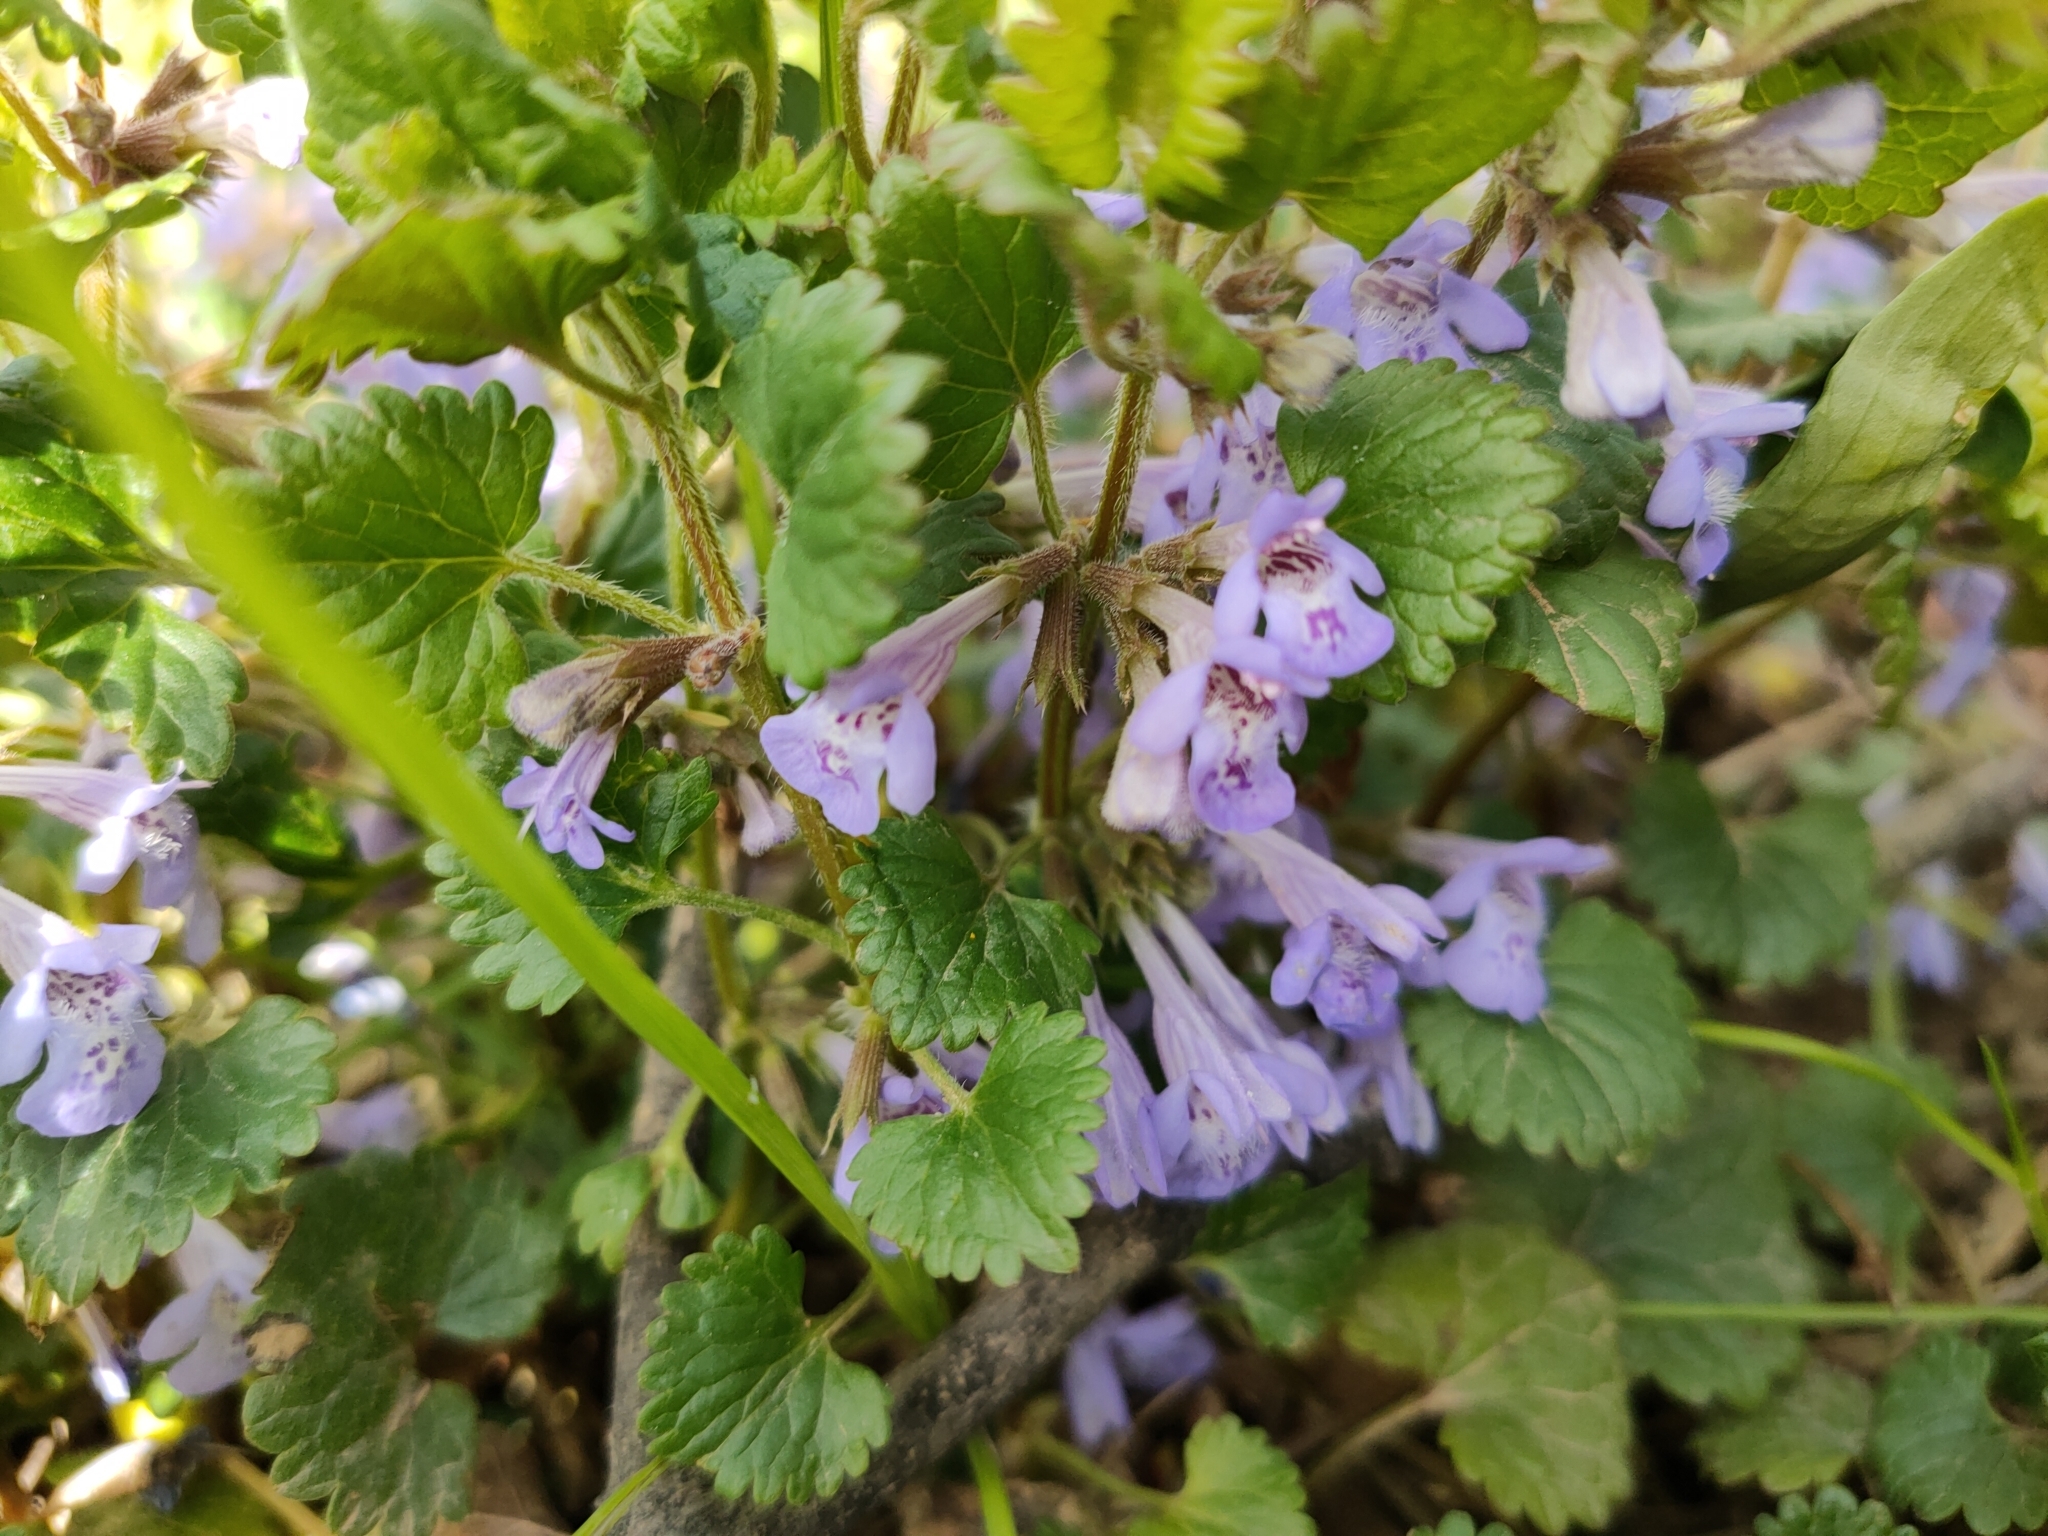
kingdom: Plantae
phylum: Tracheophyta
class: Magnoliopsida
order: Lamiales
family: Lamiaceae
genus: Glechoma
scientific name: Glechoma hederacea
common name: Ground ivy
